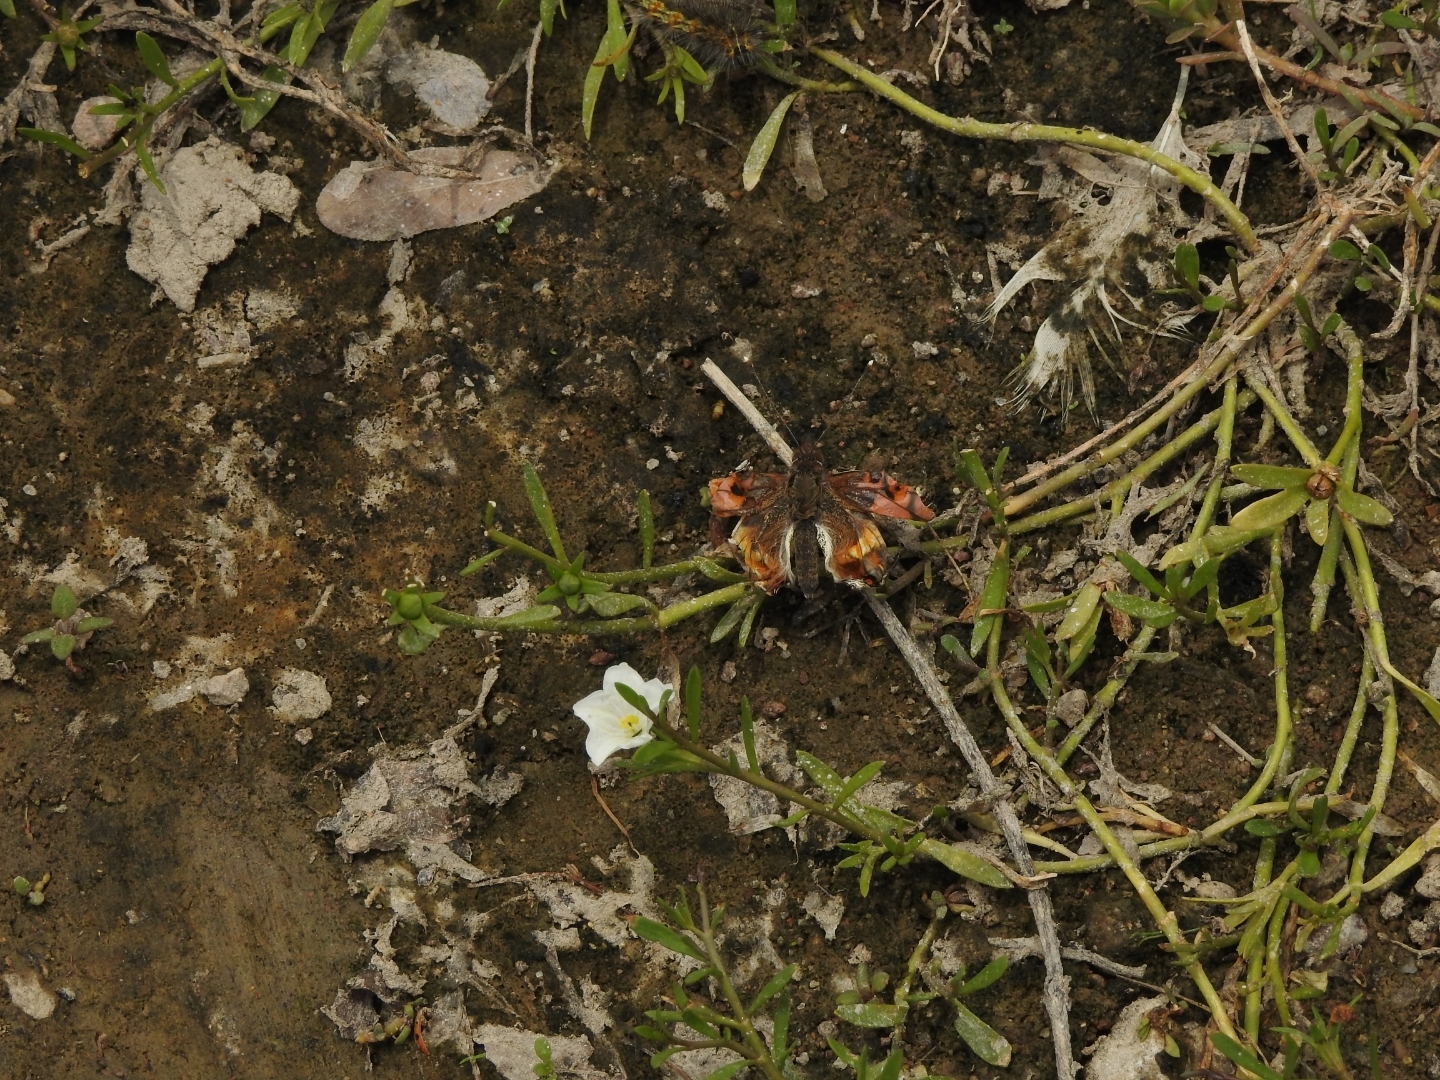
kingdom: Animalia
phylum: Arthropoda
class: Insecta
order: Lepidoptera
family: Nymphalidae
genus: Vanessa
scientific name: Vanessa
